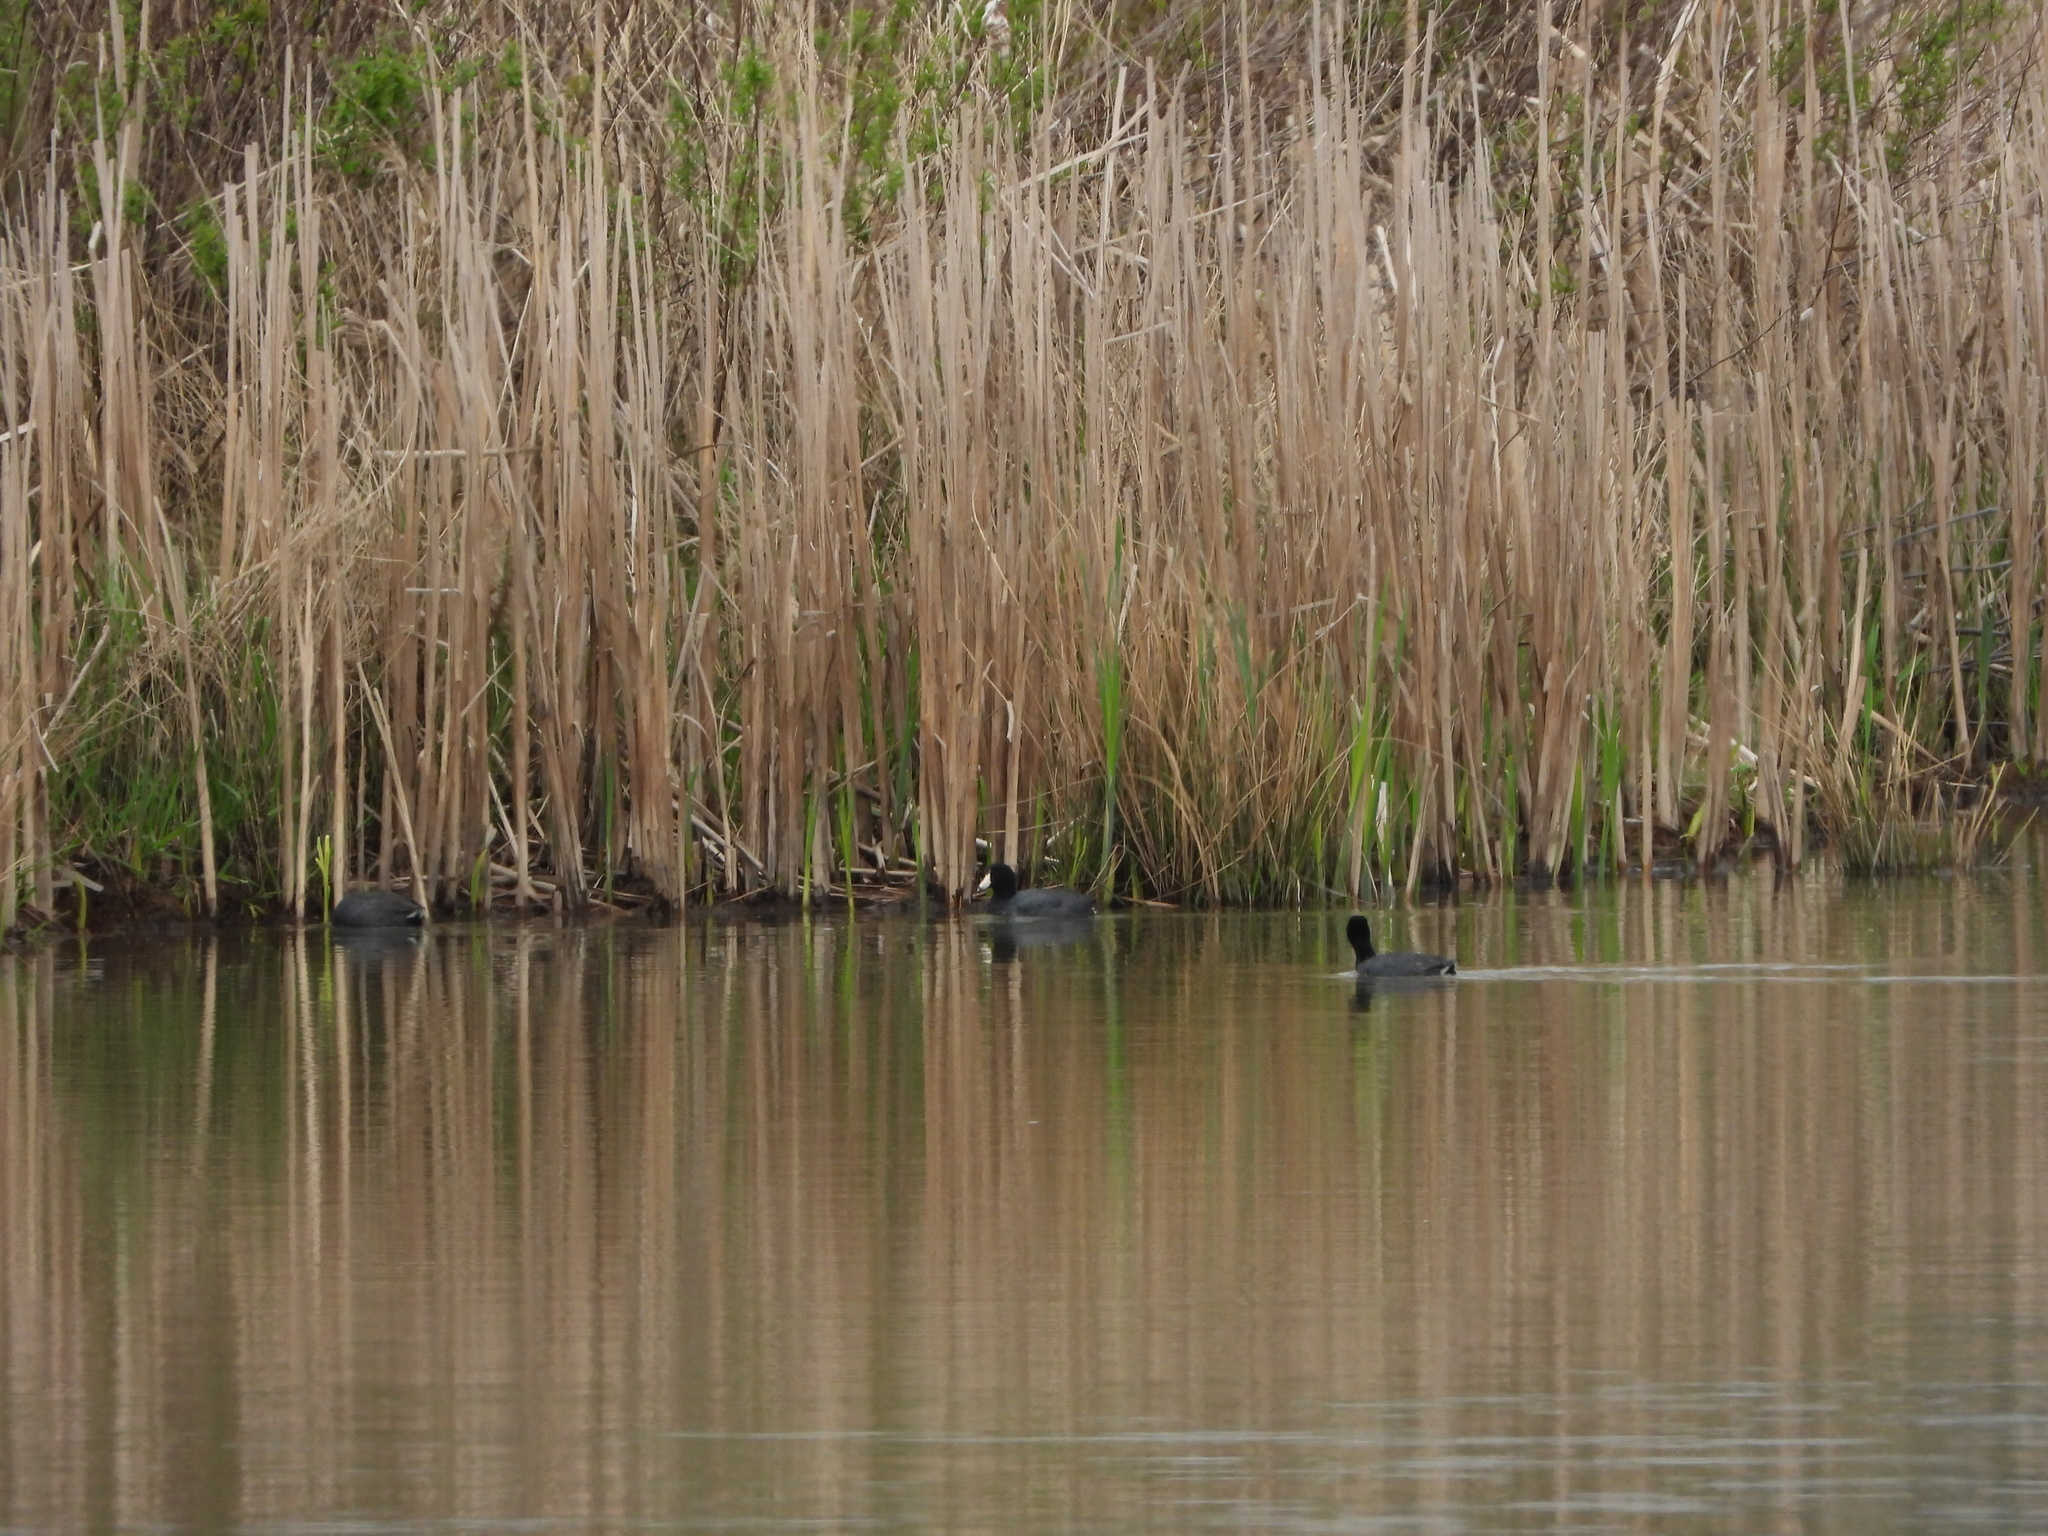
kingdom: Animalia
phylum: Chordata
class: Aves
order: Gruiformes
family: Rallidae
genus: Fulica
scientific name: Fulica americana
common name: American coot
